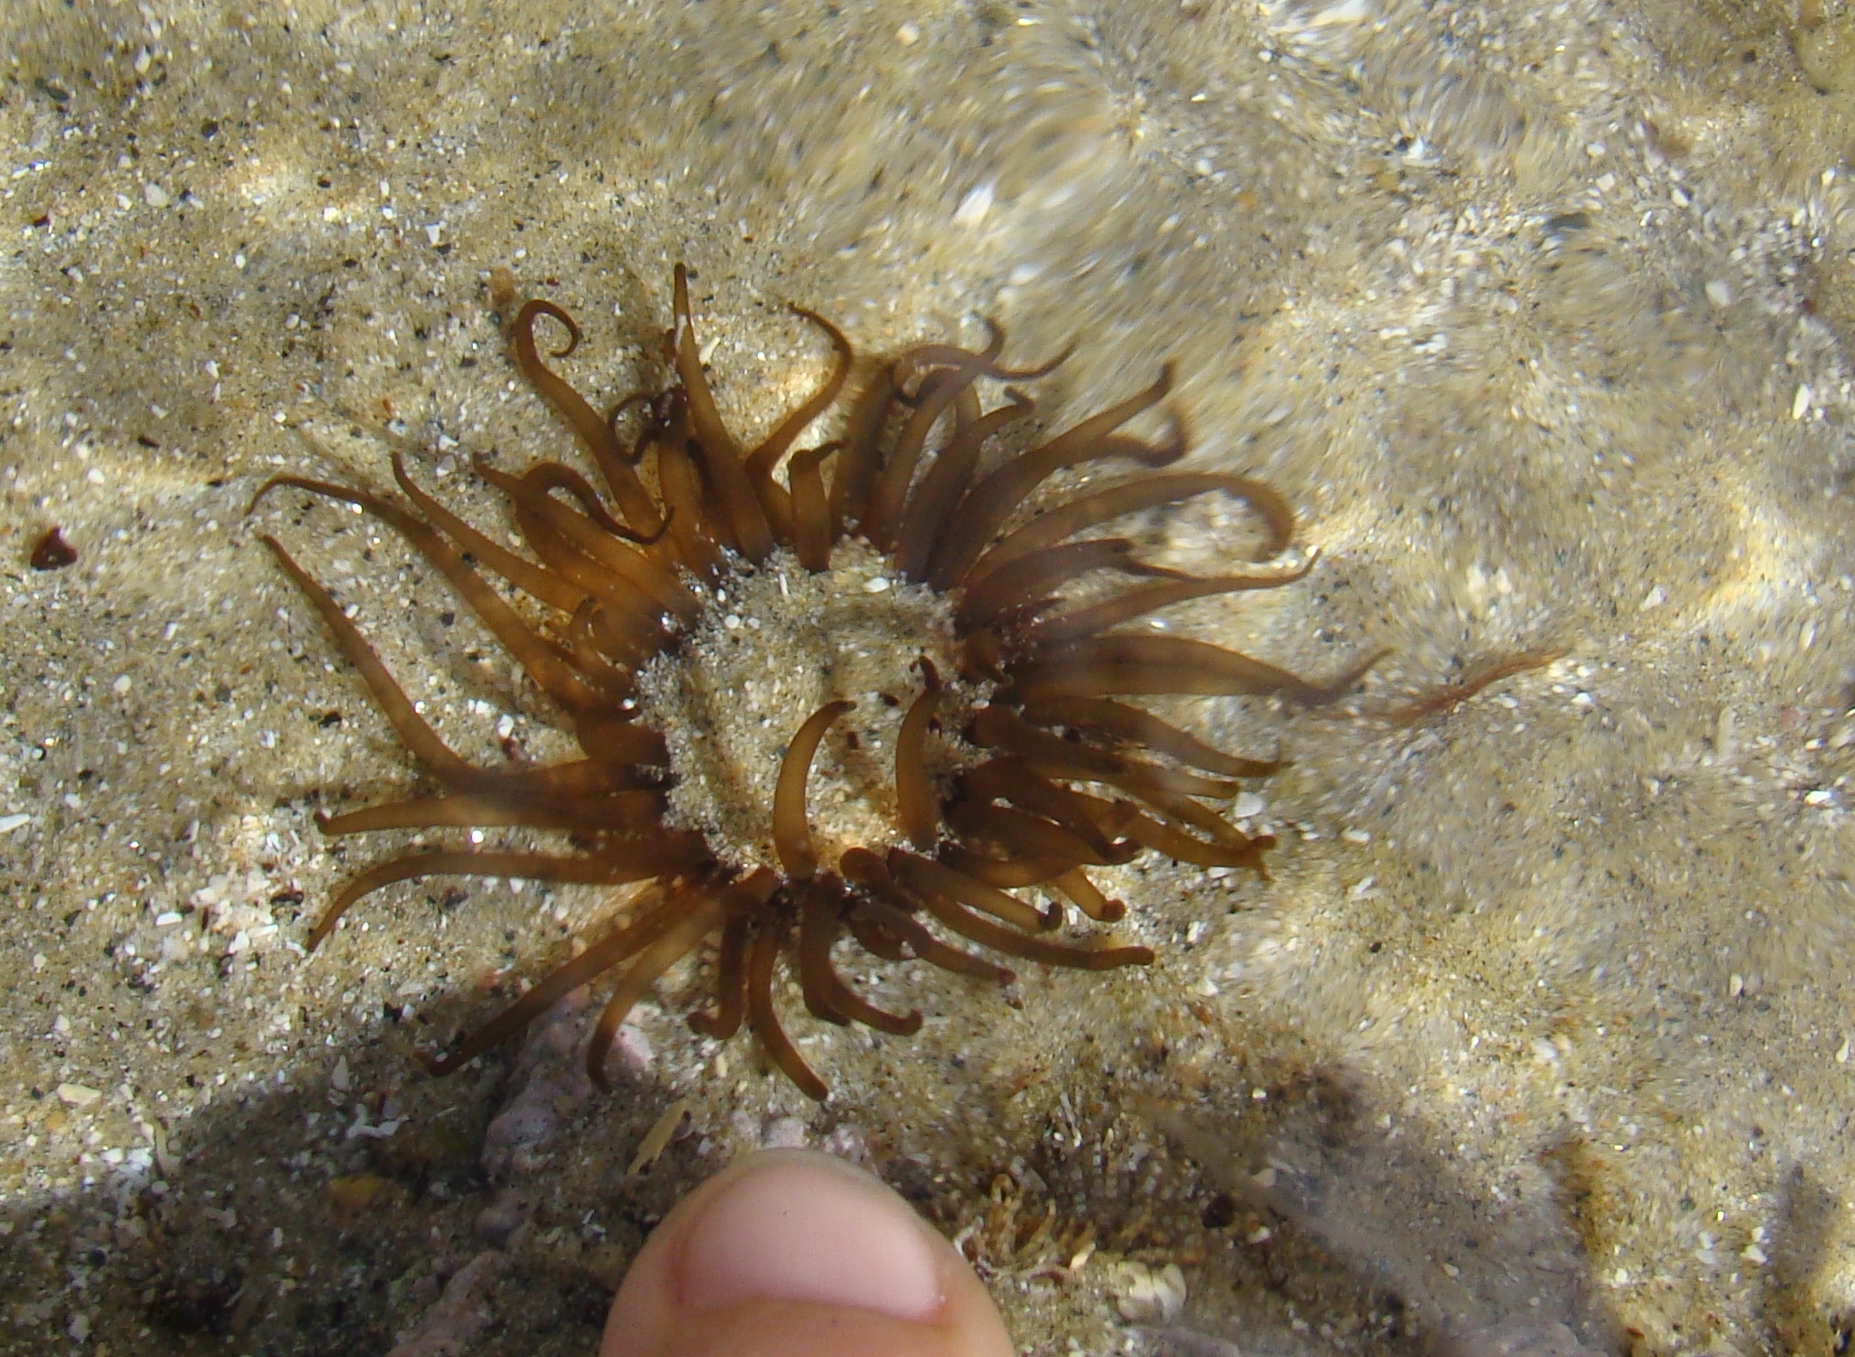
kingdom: Animalia
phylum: Cnidaria
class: Anthozoa
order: Actiniaria
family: Actiniidae
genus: Isactinia
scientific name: Isactinia olivacea
